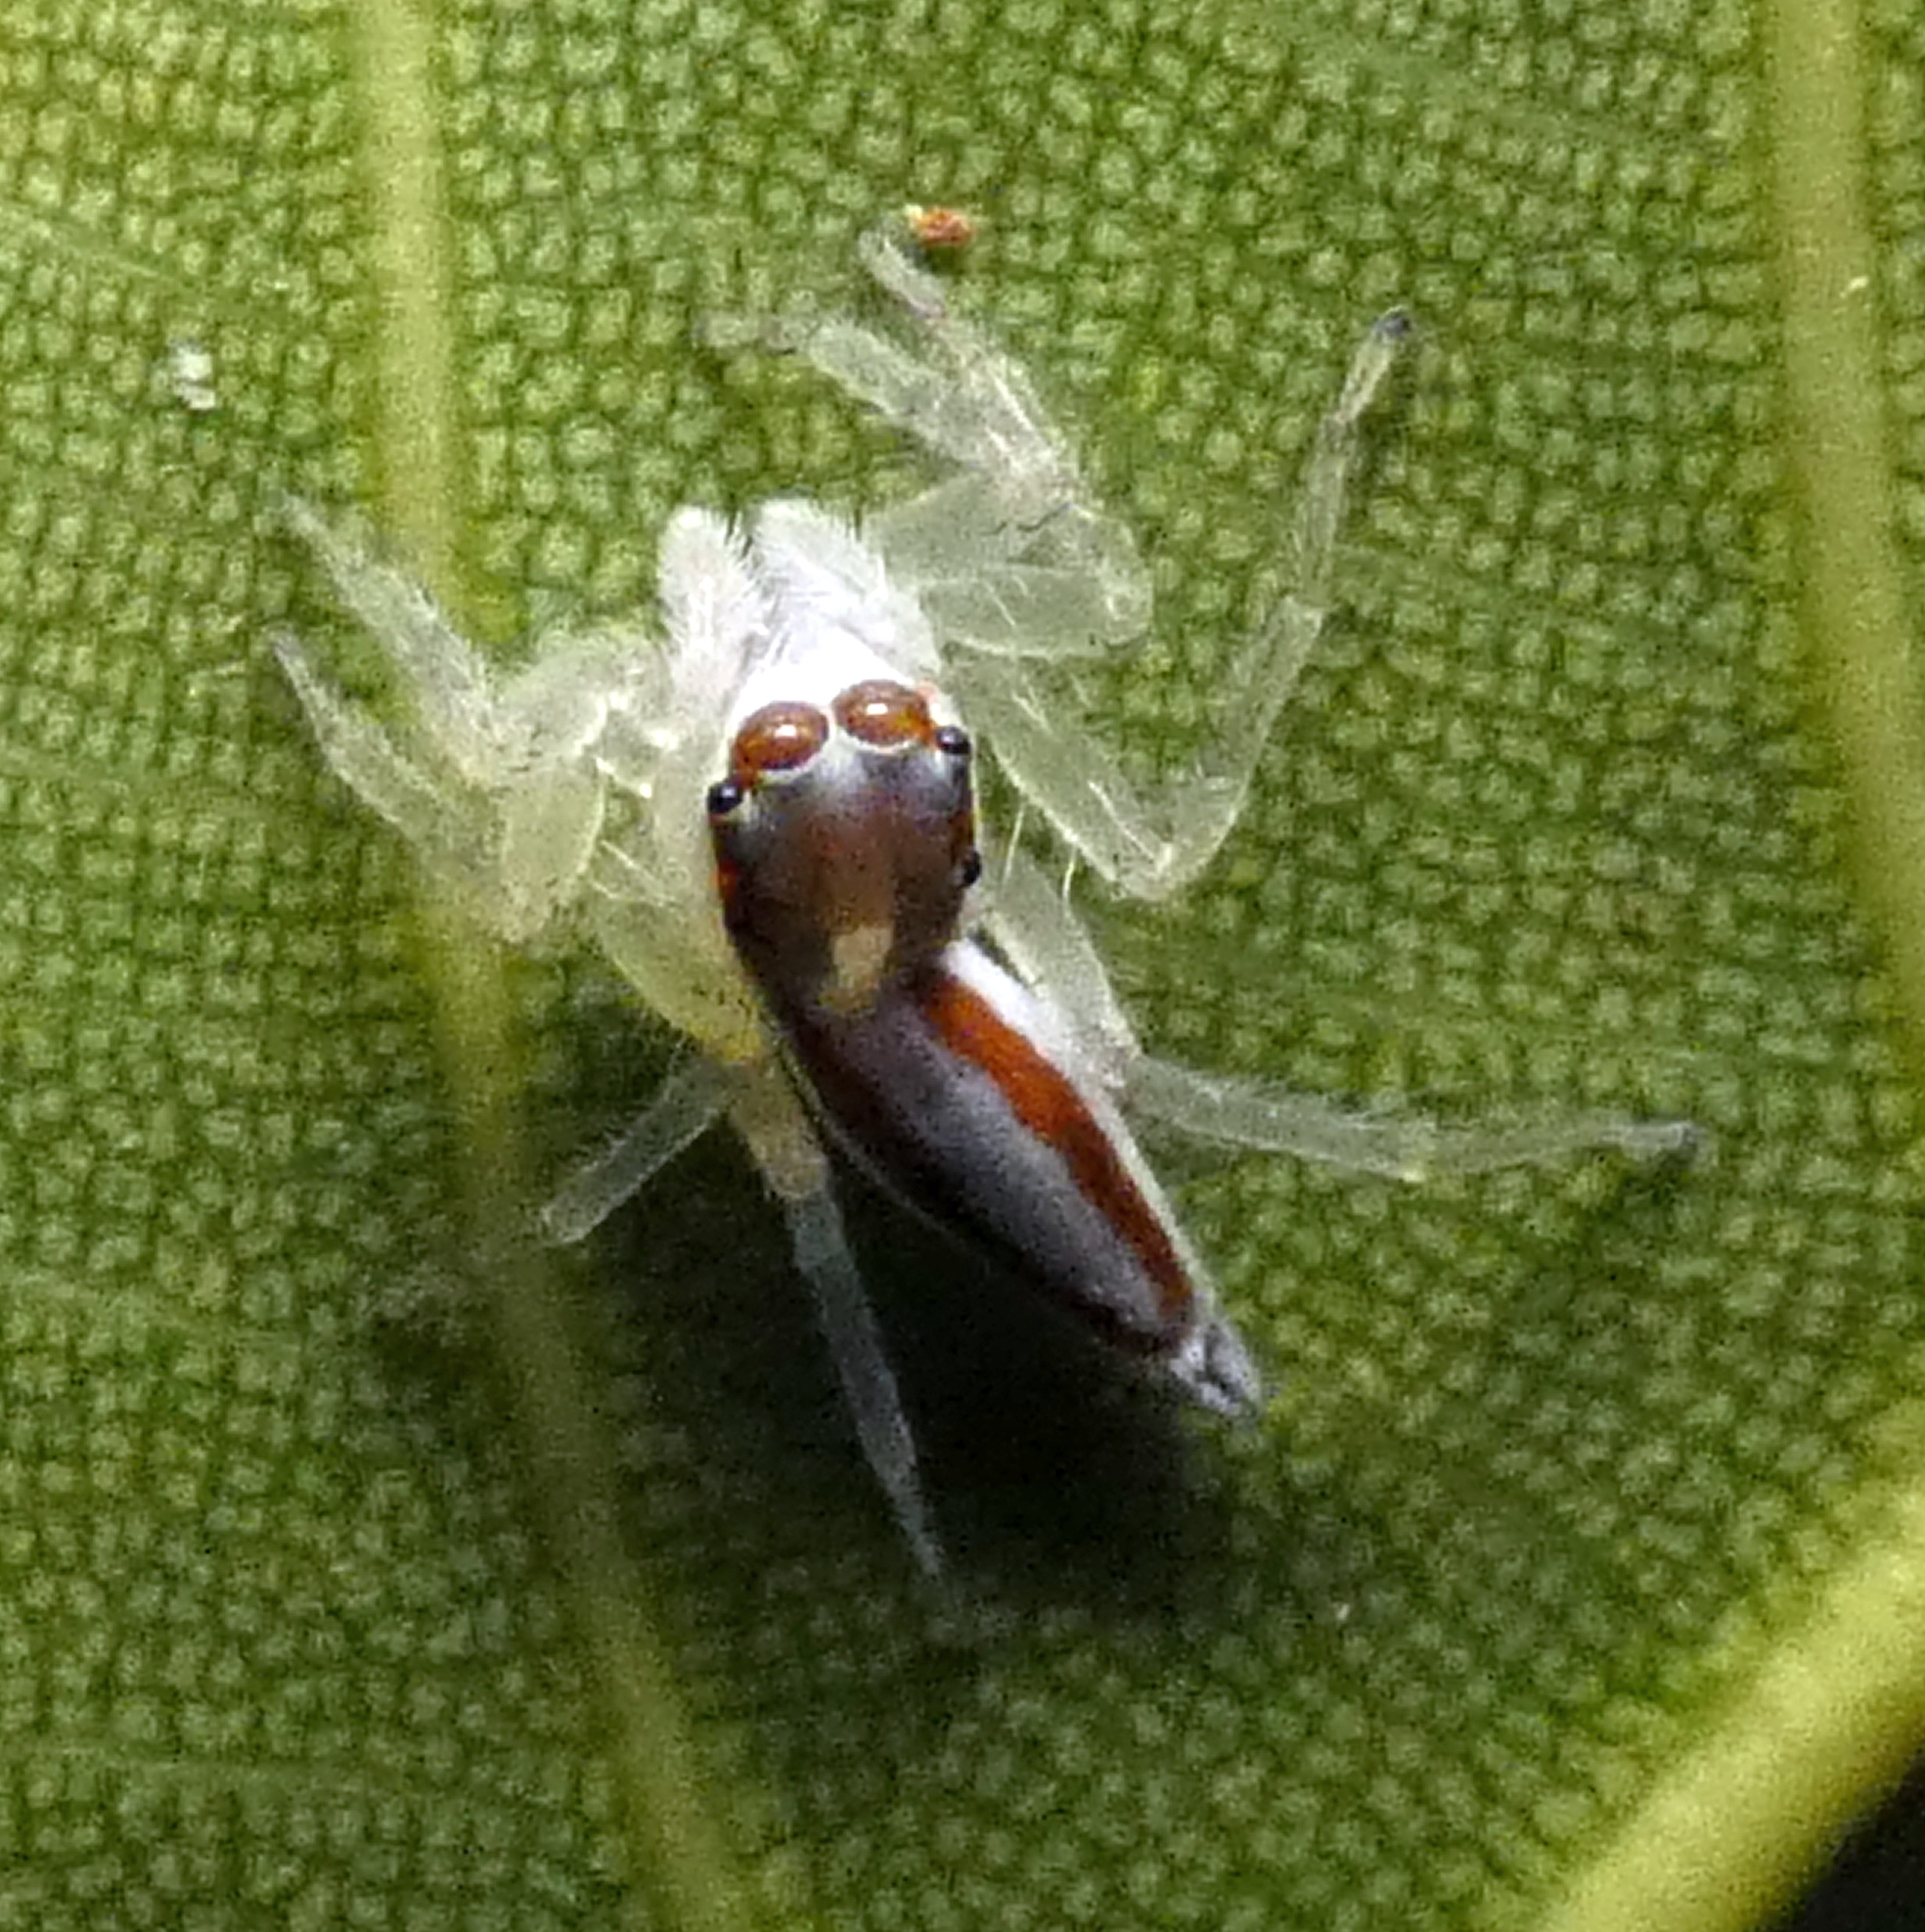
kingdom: Animalia
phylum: Arthropoda
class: Arachnida
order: Araneae
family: Salticidae
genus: Chira
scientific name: Chira trivittata
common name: Jumping spiders
